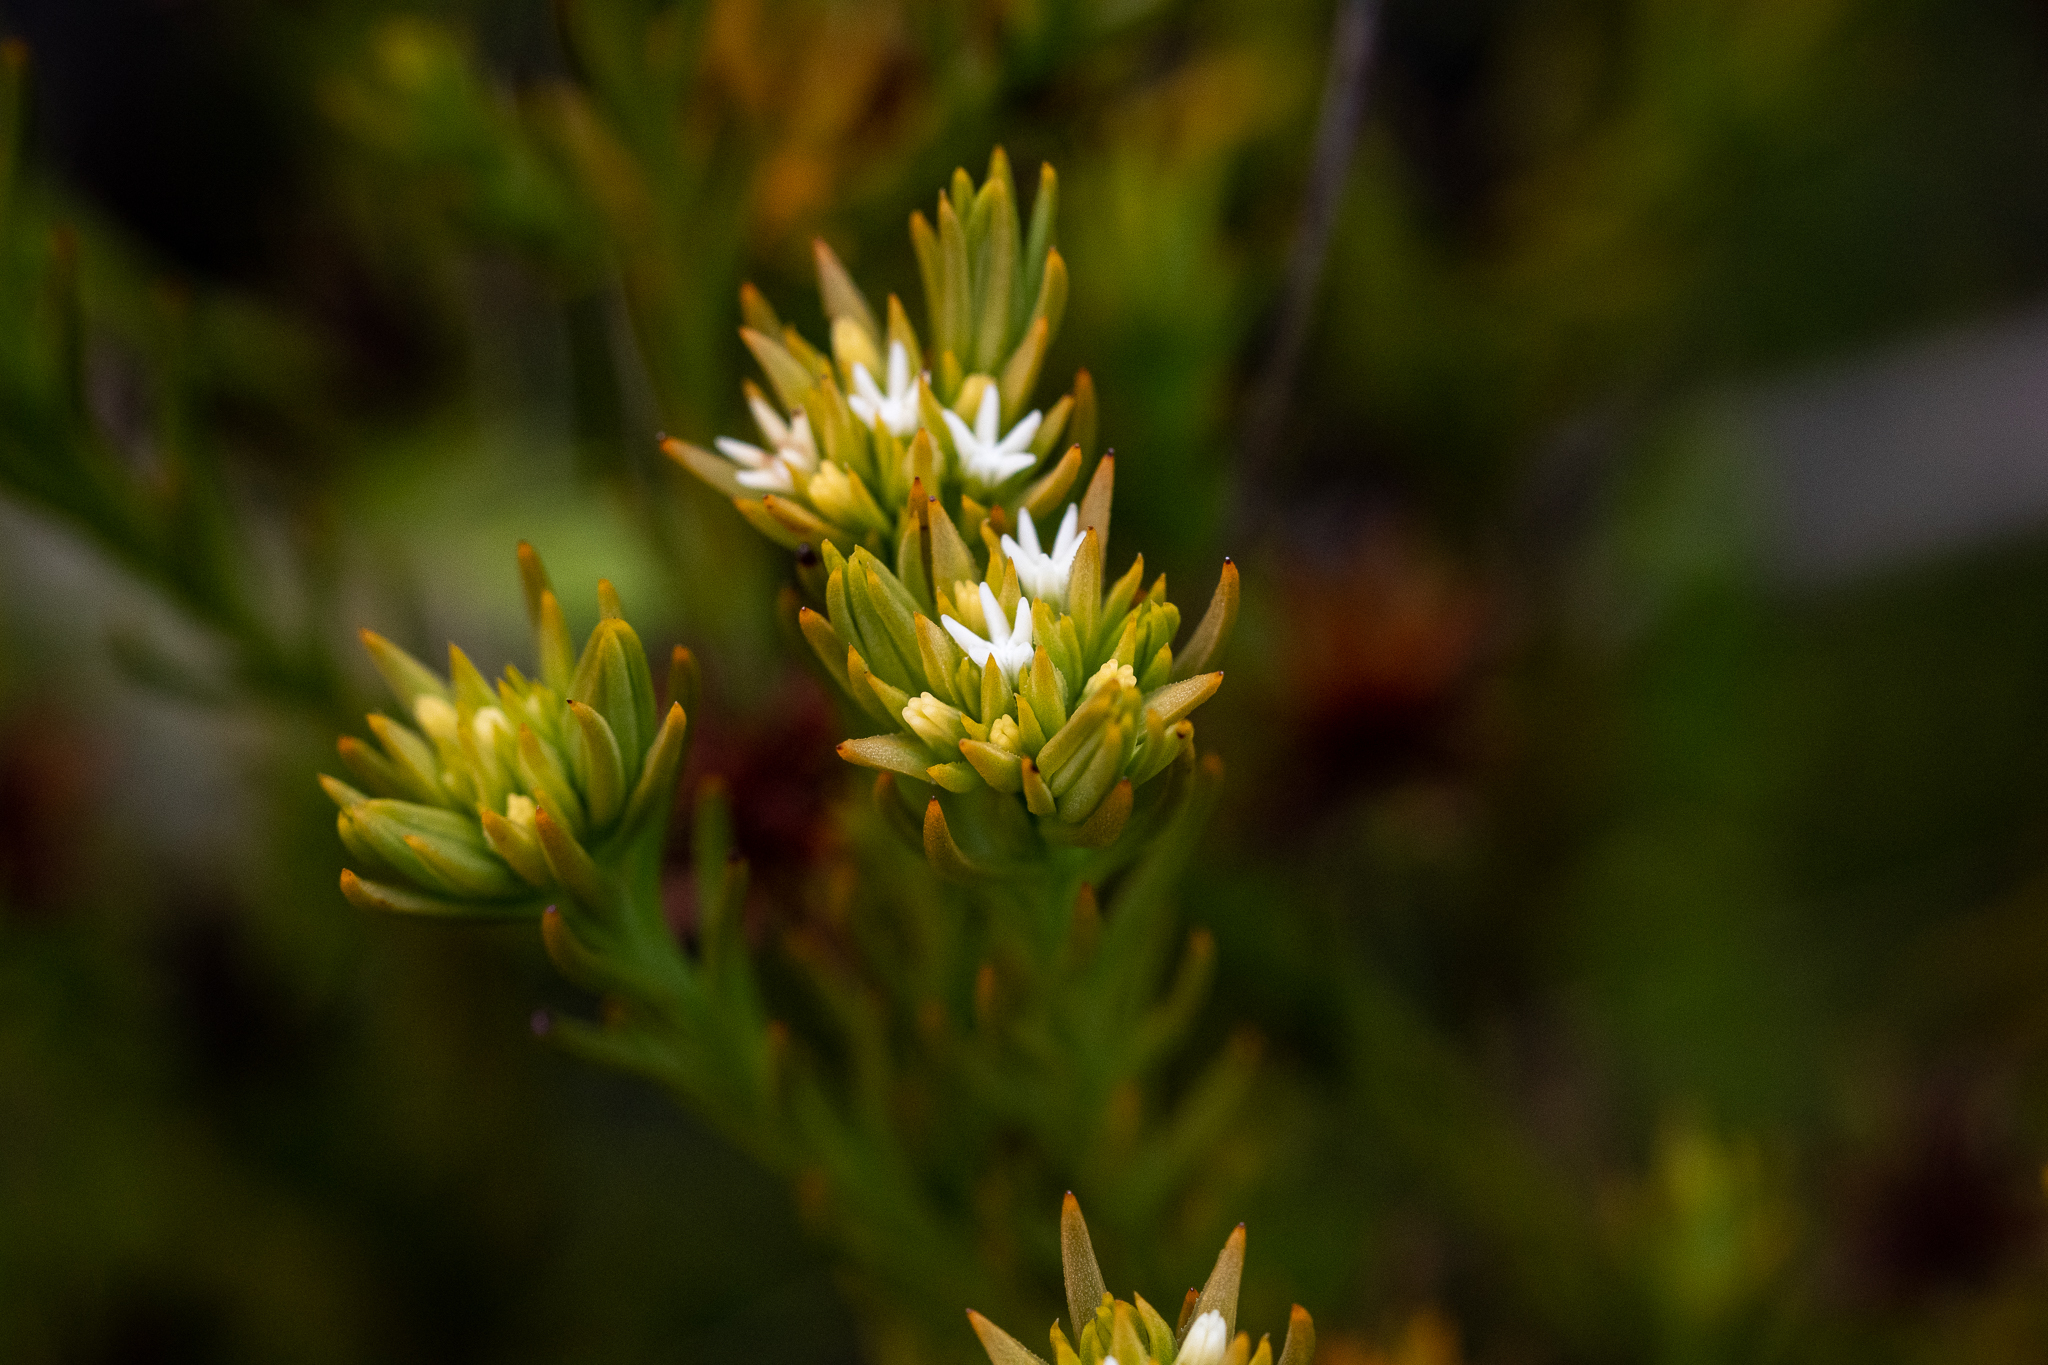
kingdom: Plantae
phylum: Tracheophyta
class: Magnoliopsida
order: Santalales
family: Thesiaceae
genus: Thesium
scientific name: Thesium capitatum
